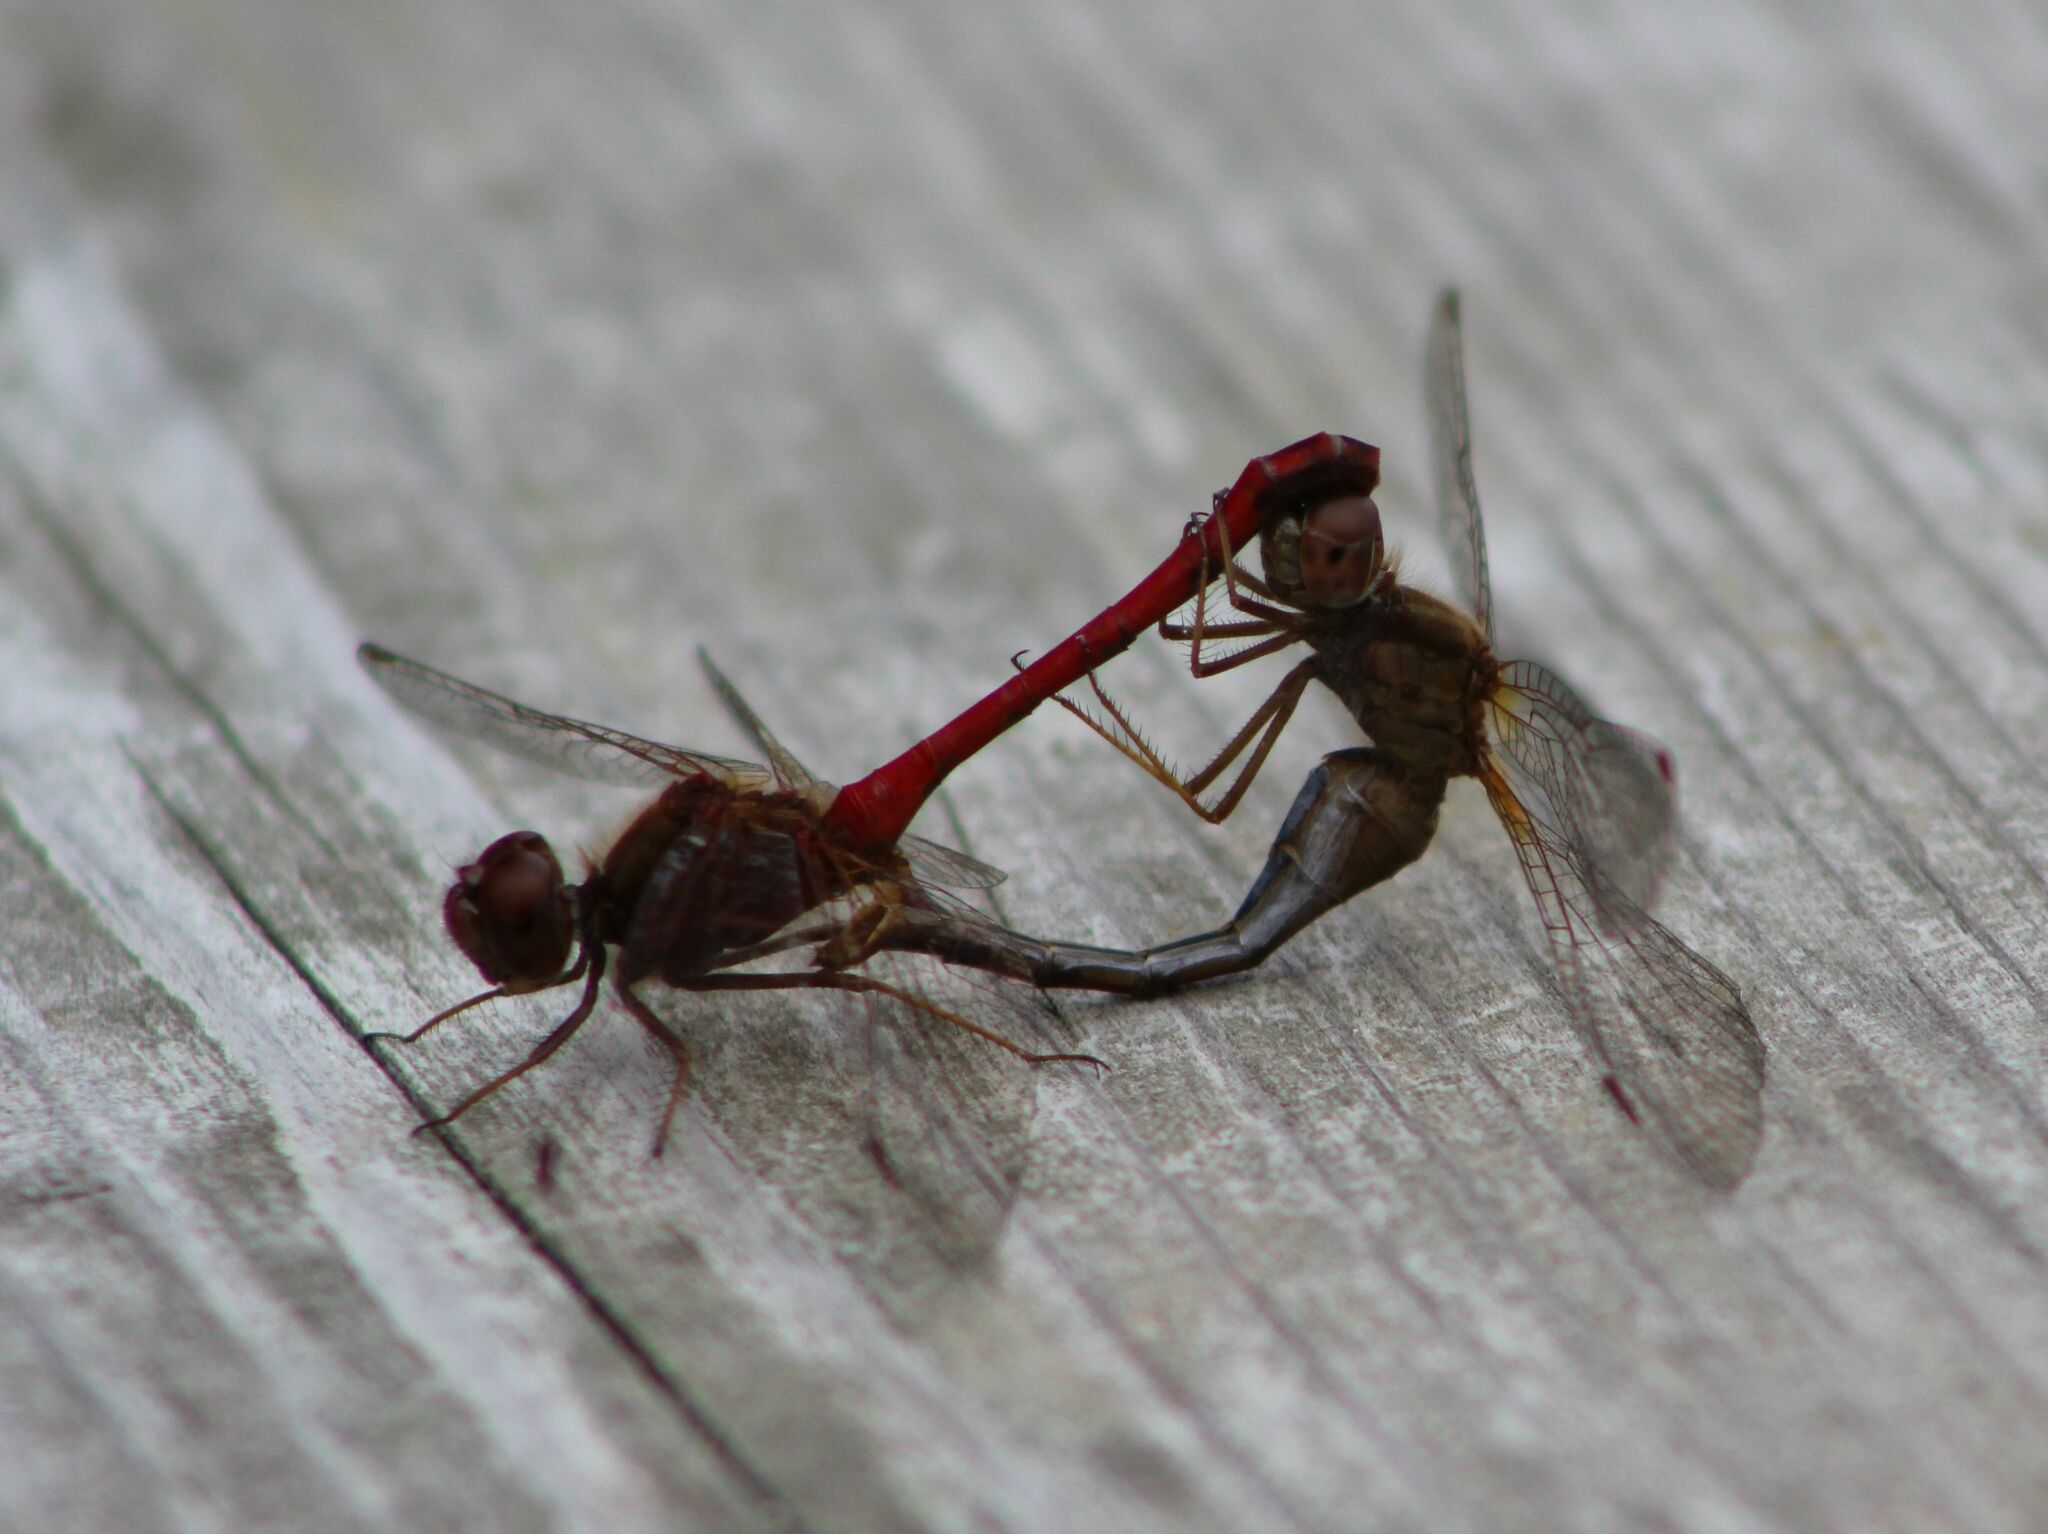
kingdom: Animalia
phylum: Arthropoda
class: Insecta
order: Odonata
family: Libellulidae
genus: Sympetrum
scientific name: Sympetrum vicinum
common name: Autumn meadowhawk
